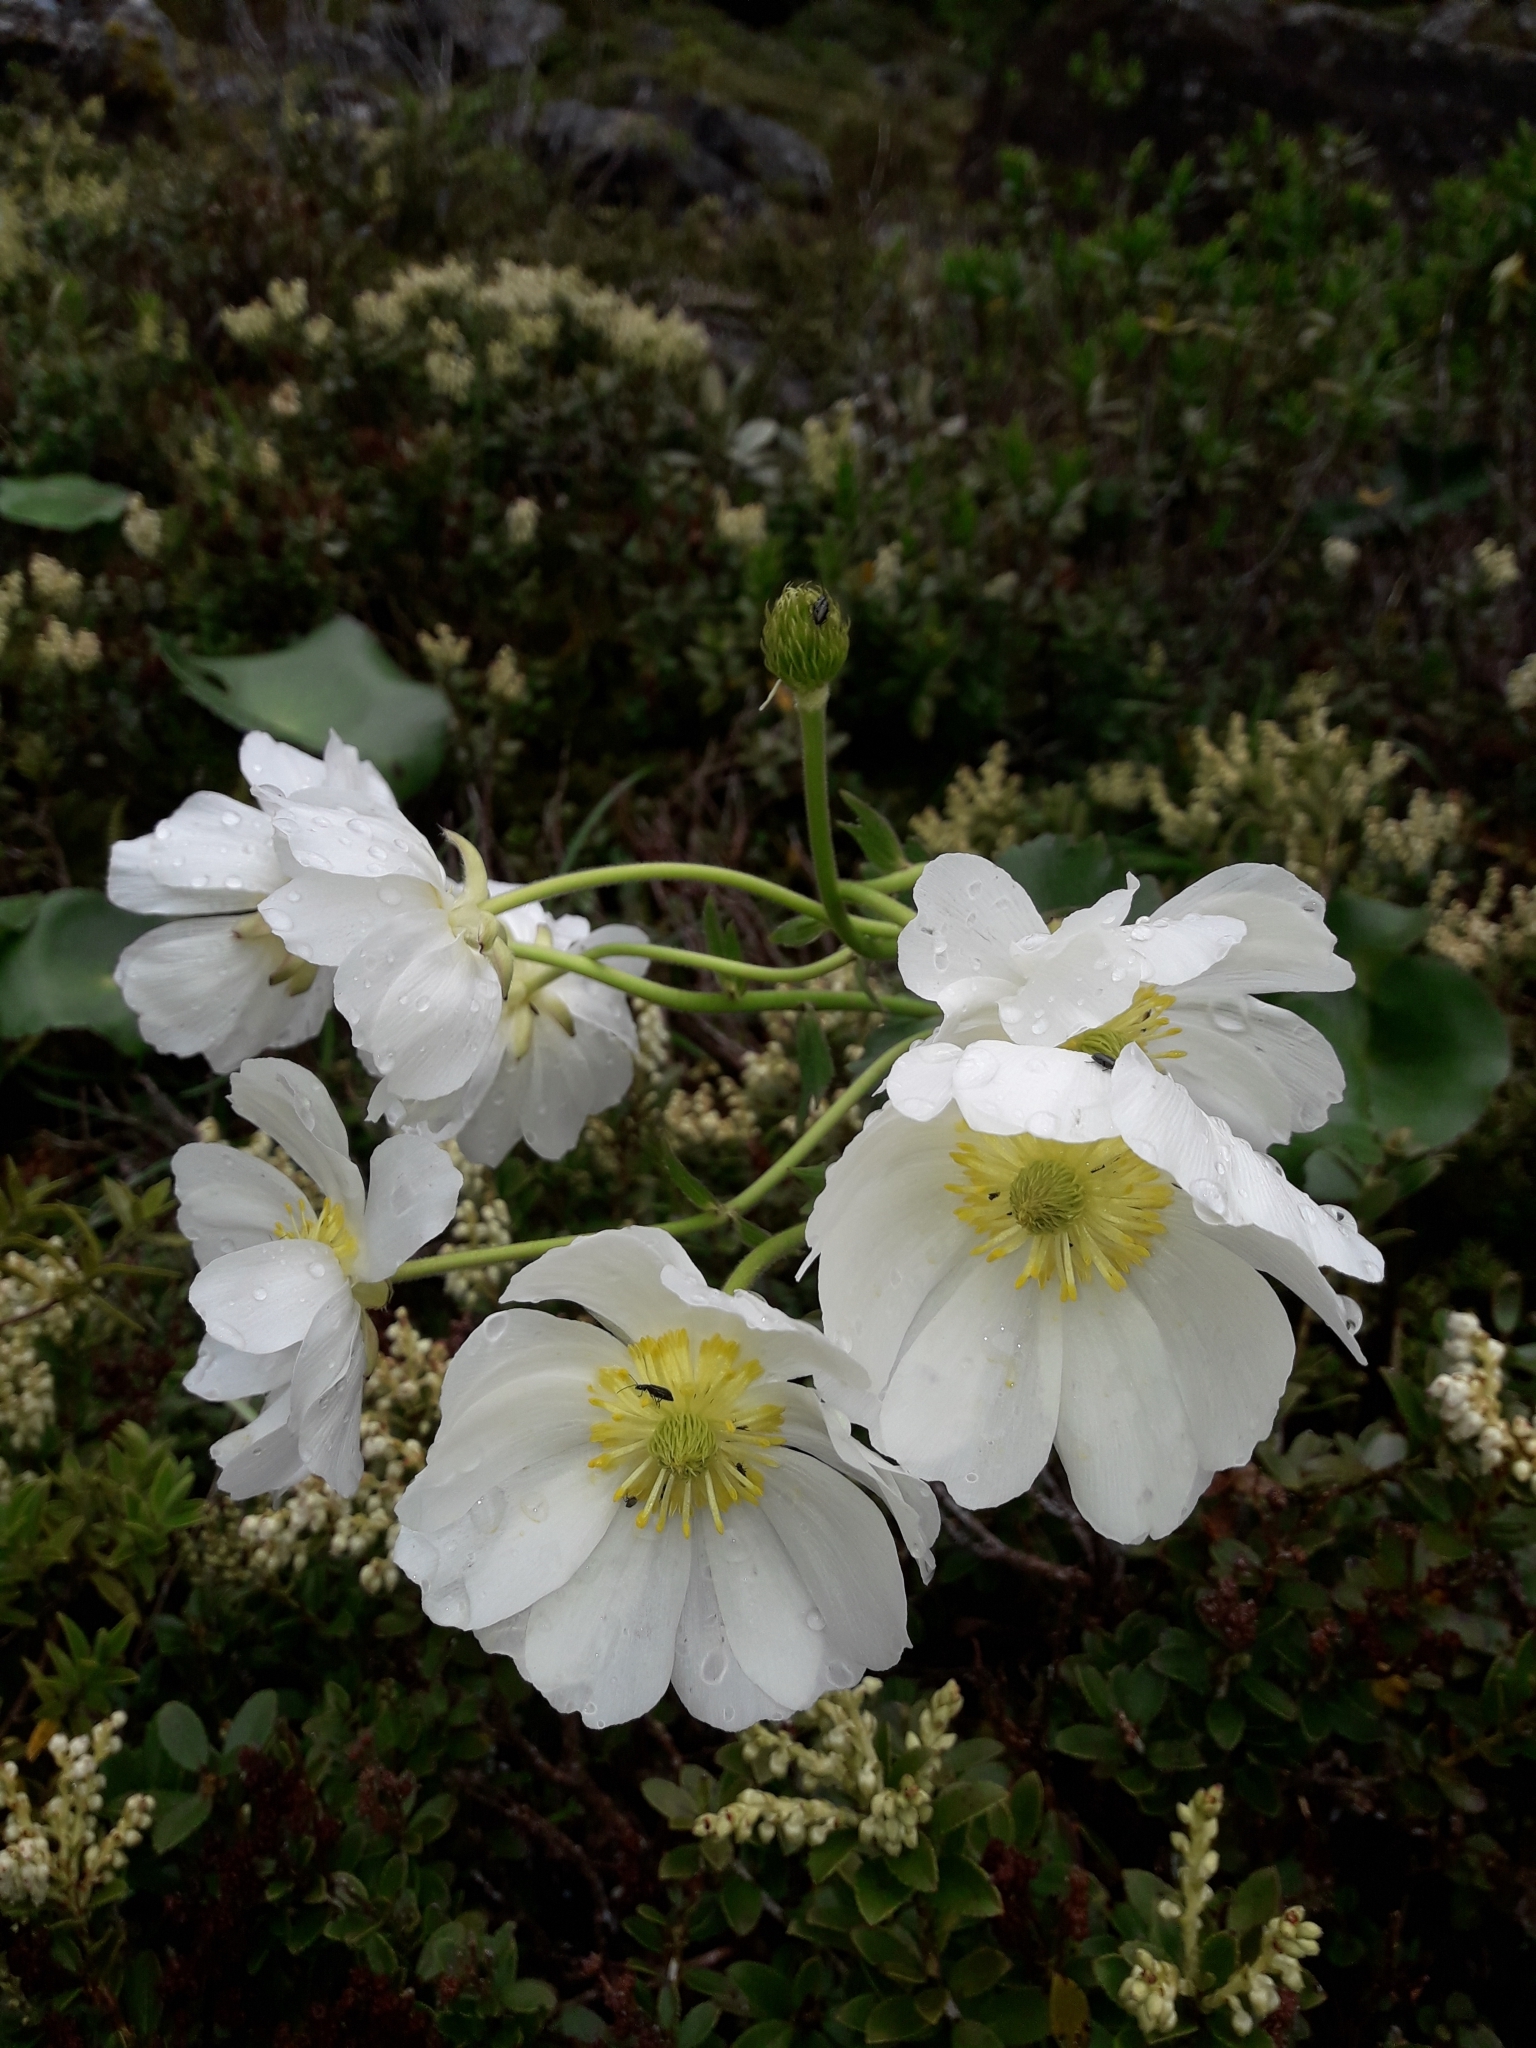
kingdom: Plantae
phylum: Tracheophyta
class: Magnoliopsida
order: Ranunculales
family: Ranunculaceae
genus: Ranunculus
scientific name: Ranunculus lyallii
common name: Mountain-lily
